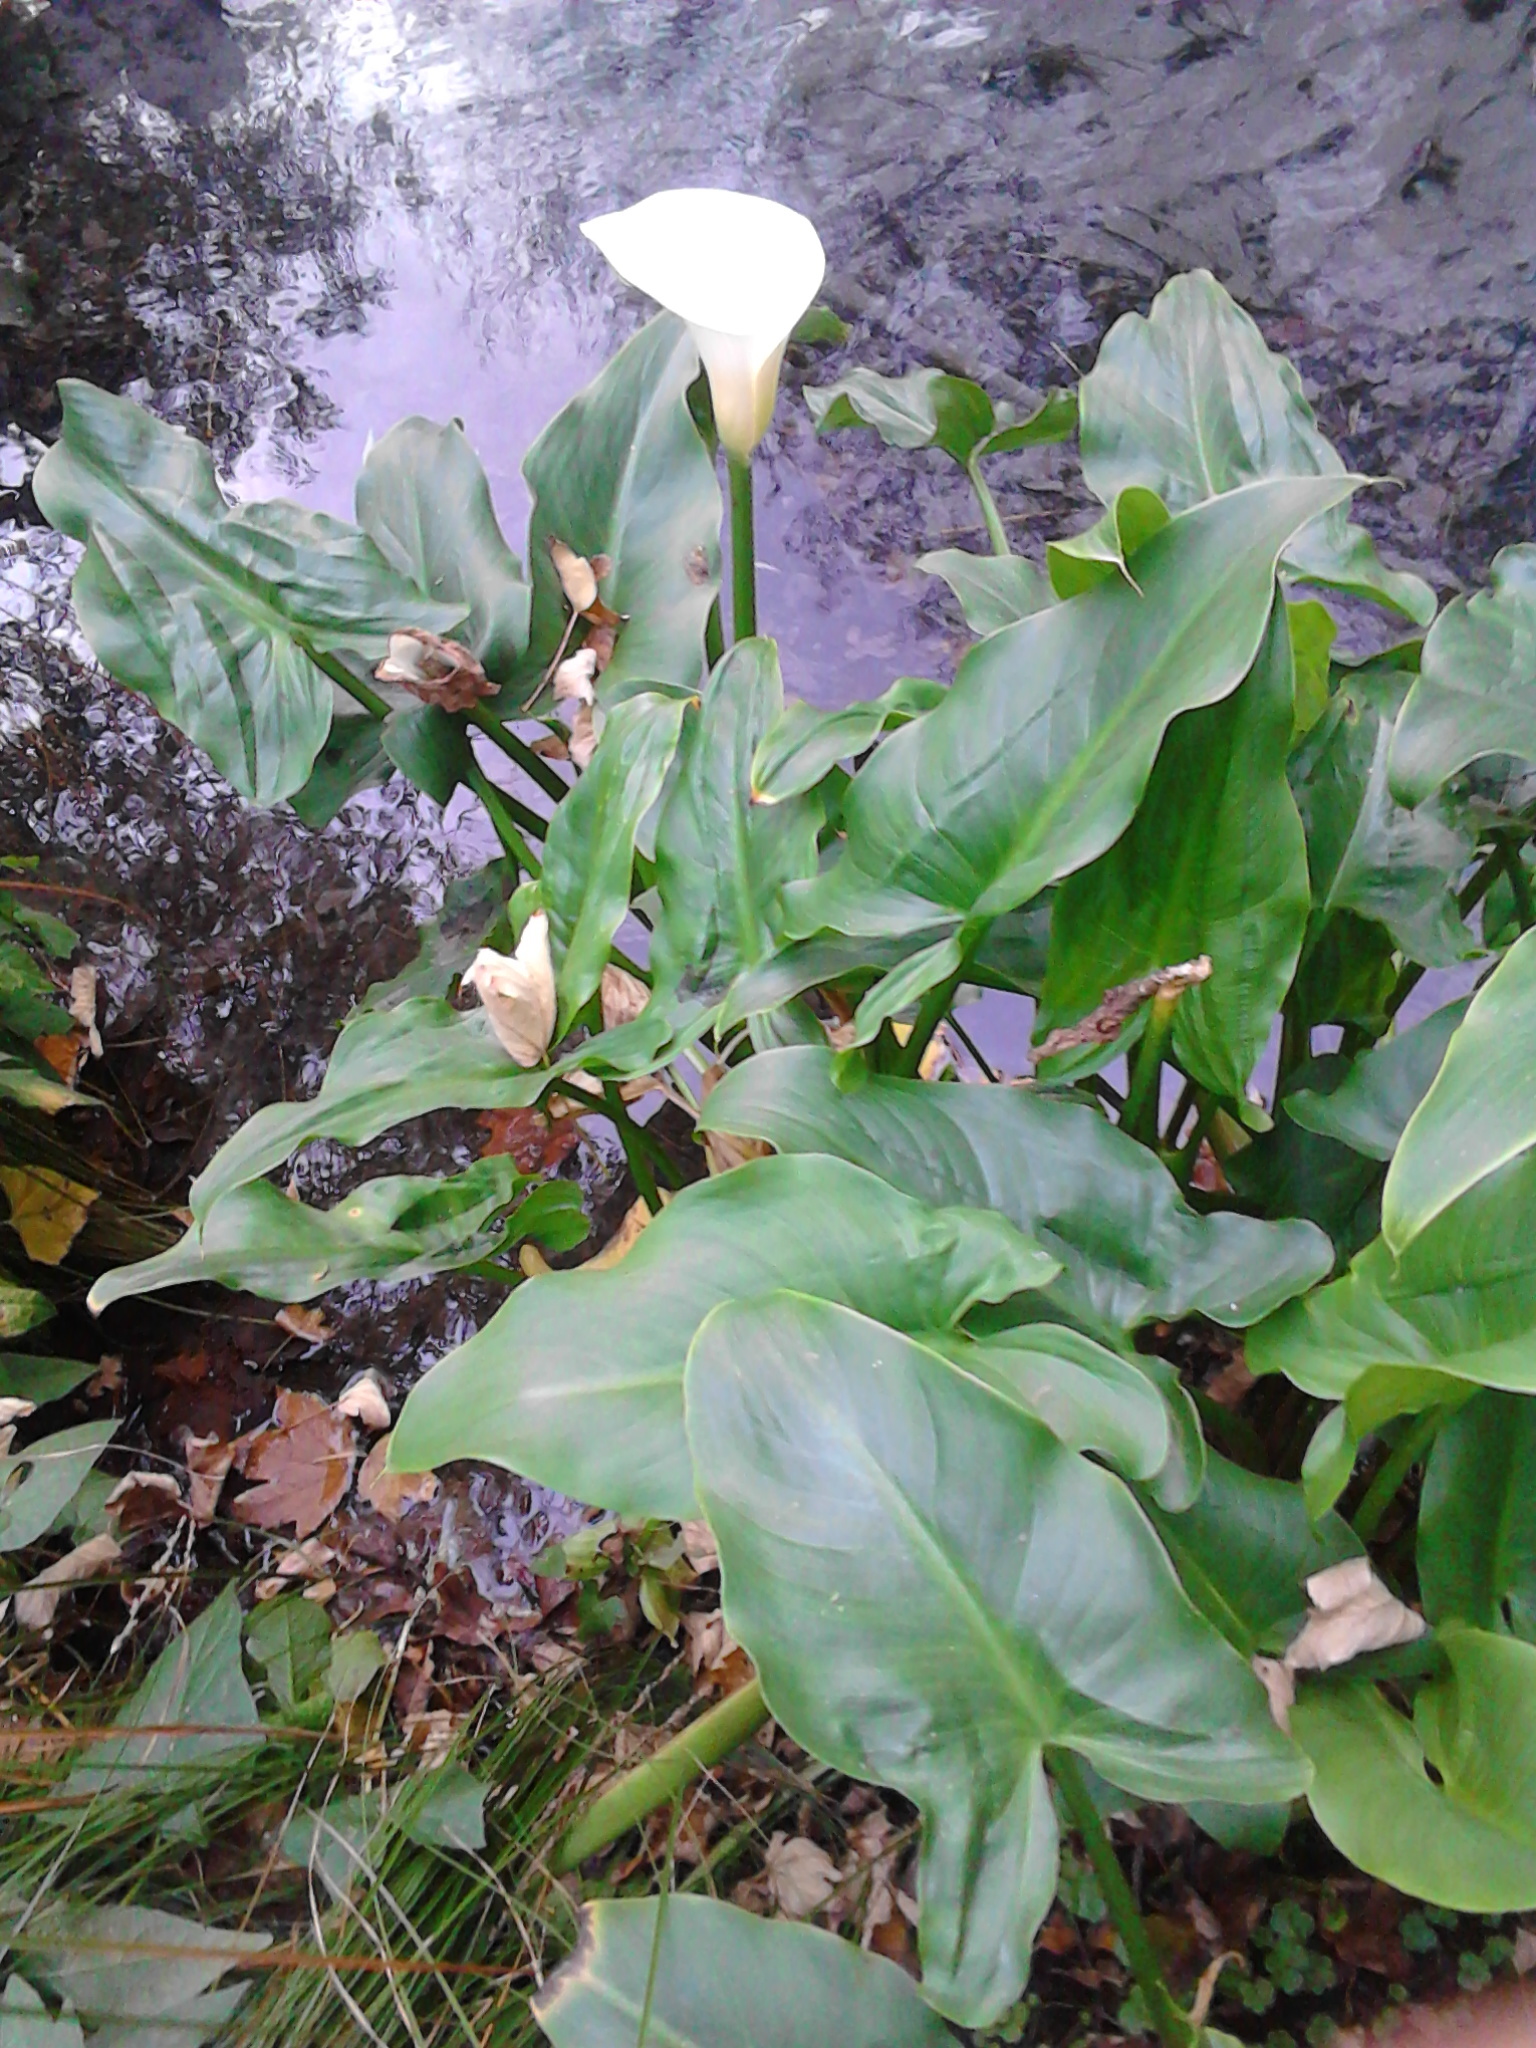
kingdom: Plantae
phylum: Tracheophyta
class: Liliopsida
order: Alismatales
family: Araceae
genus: Zantedeschia
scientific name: Zantedeschia aethiopica
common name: Altar-lily
